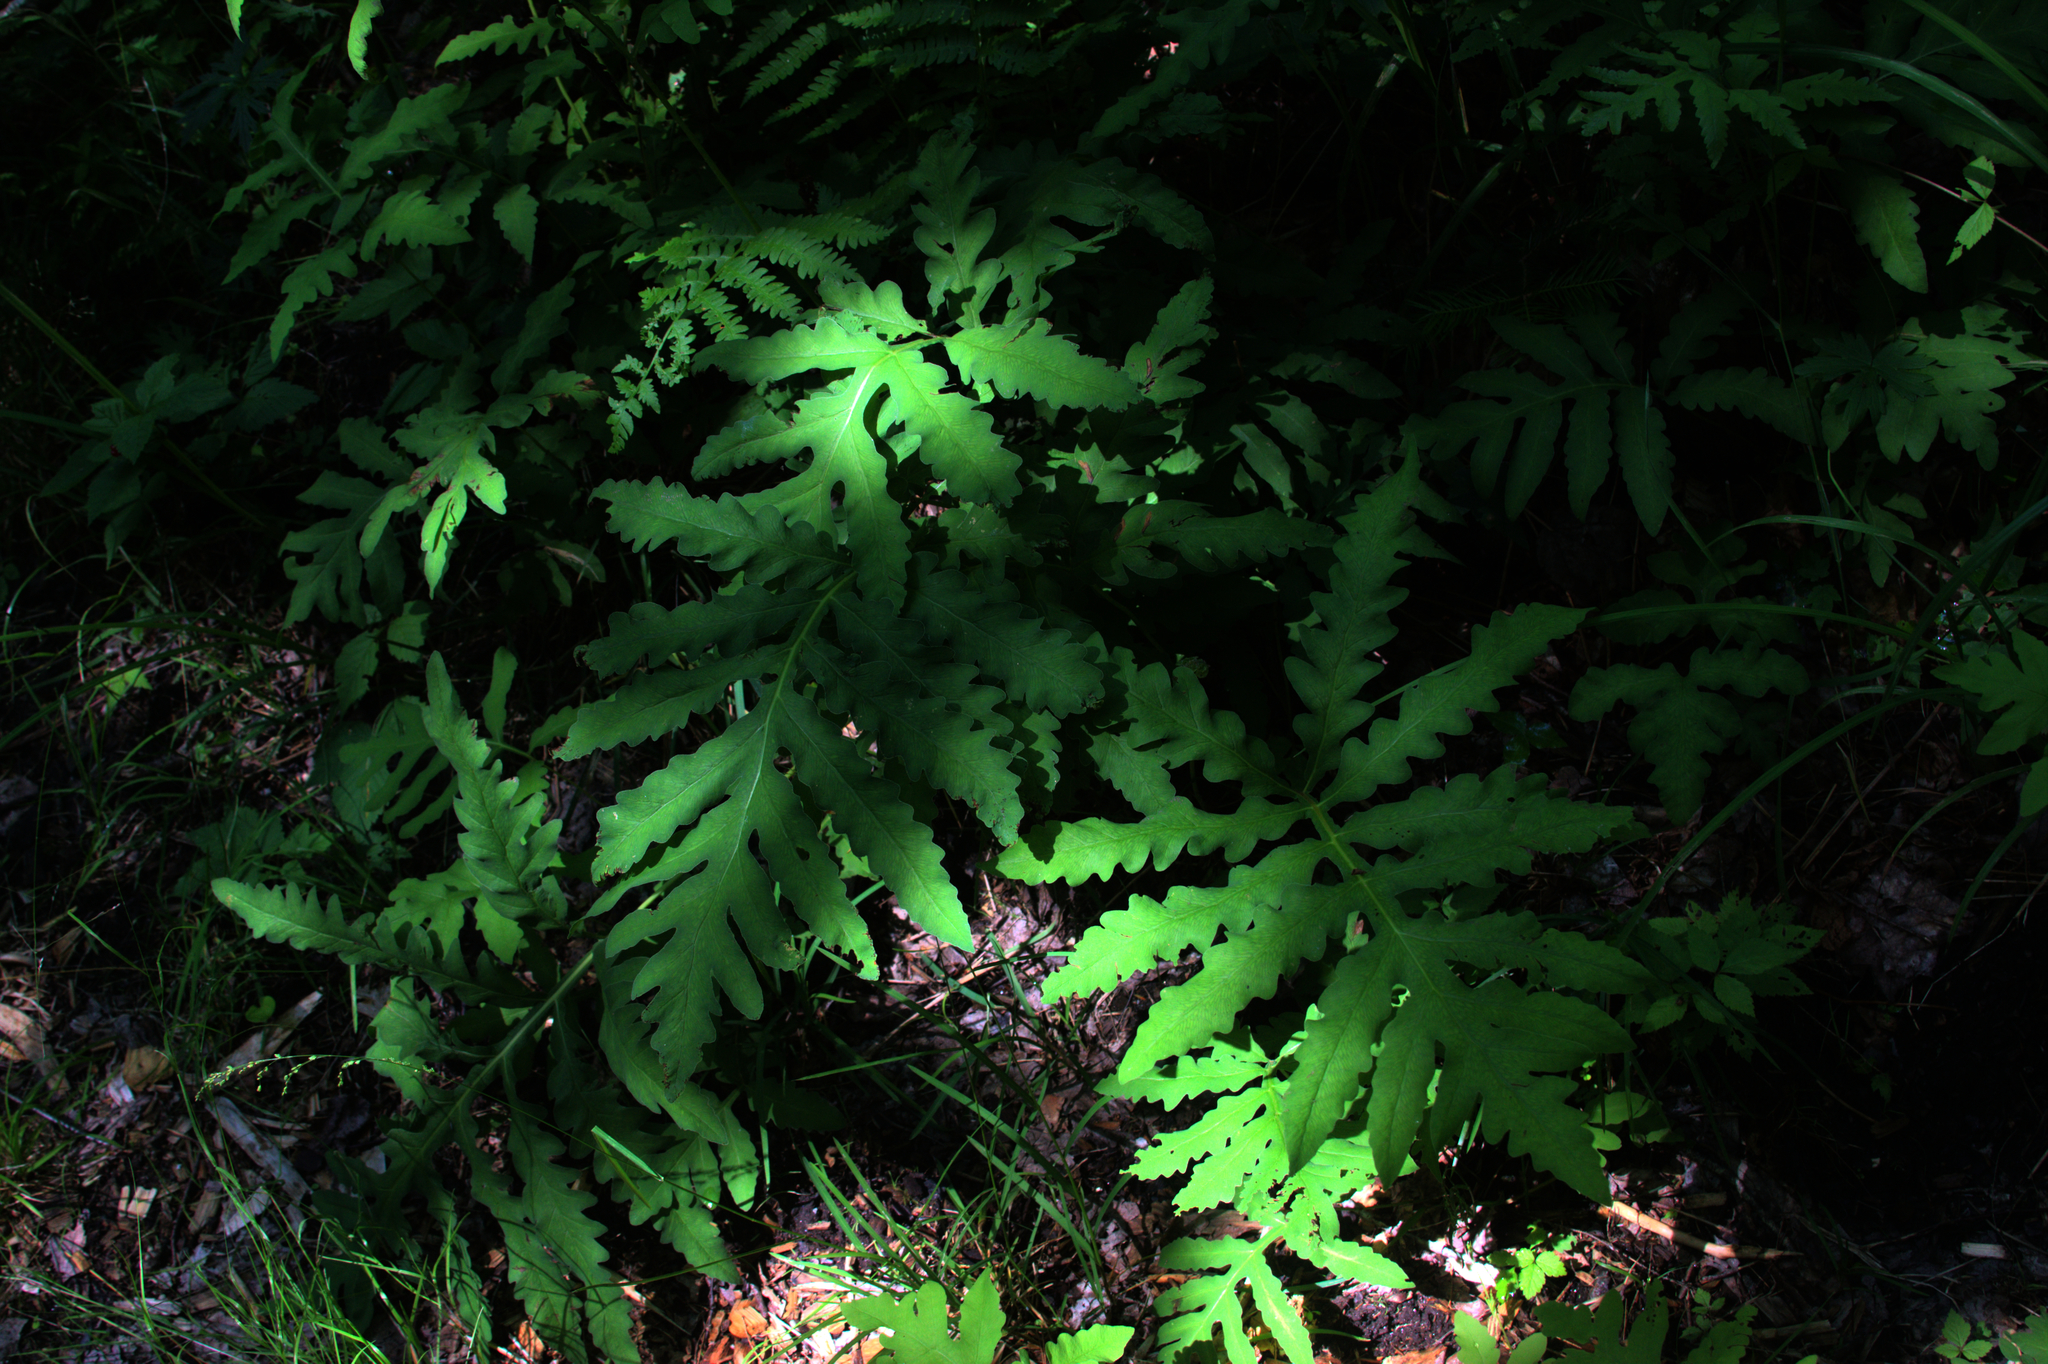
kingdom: Plantae
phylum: Tracheophyta
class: Polypodiopsida
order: Polypodiales
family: Onocleaceae
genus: Onoclea
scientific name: Onoclea sensibilis
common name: Sensitive fern
